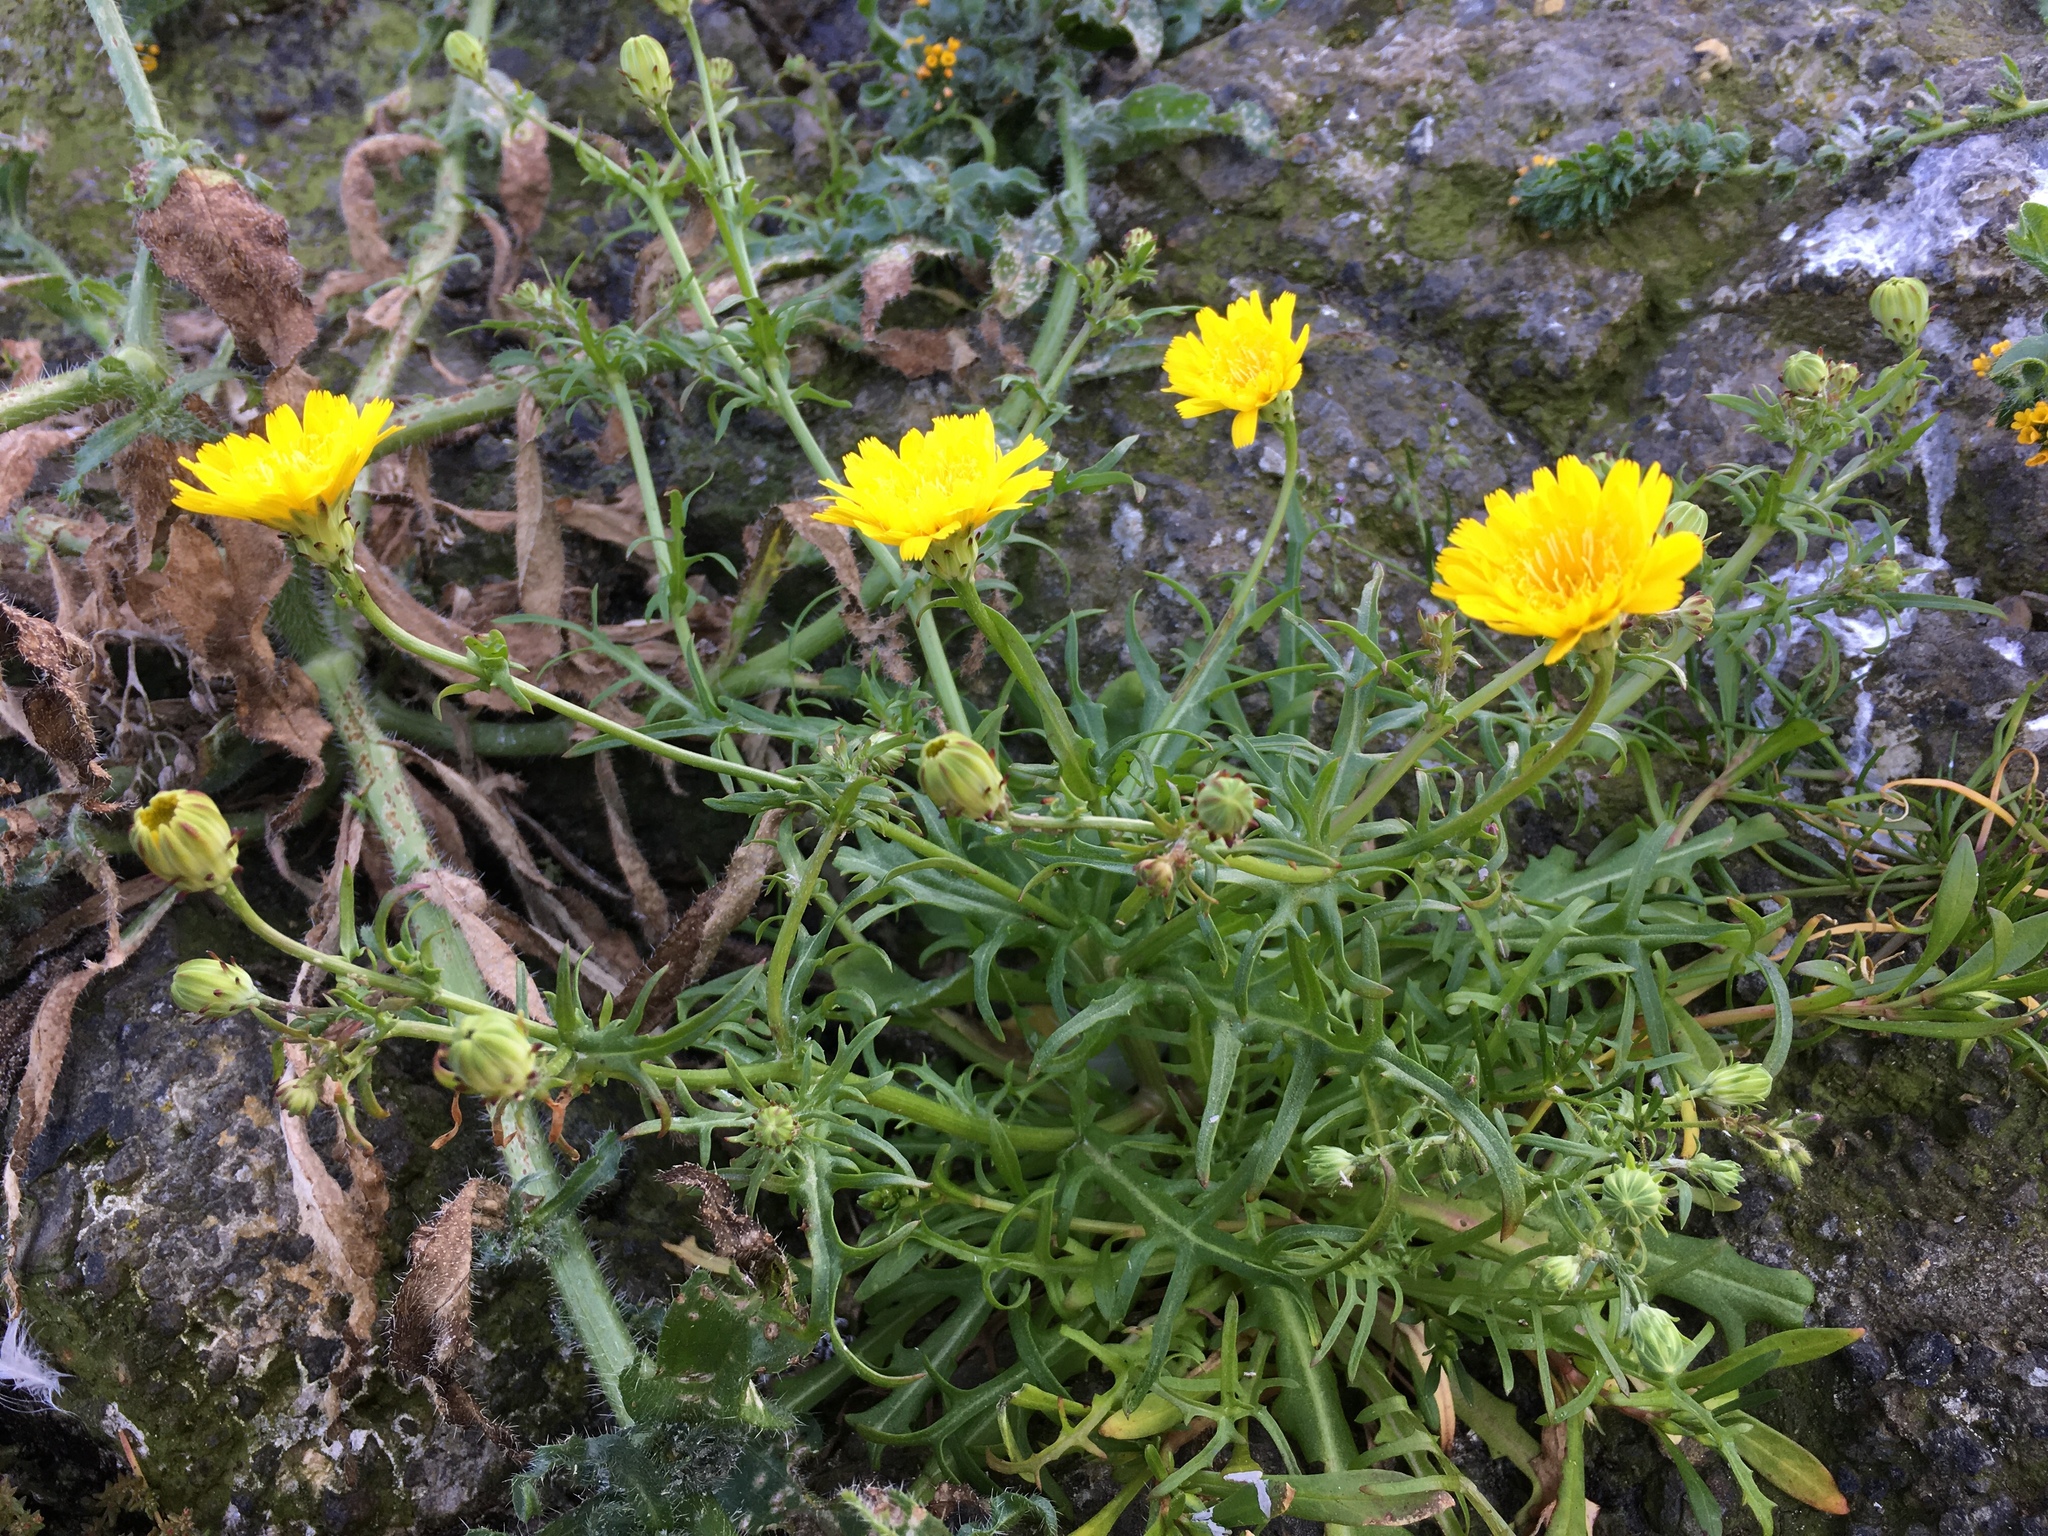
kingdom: Plantae
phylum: Tracheophyta
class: Magnoliopsida
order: Asterales
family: Asteraceae
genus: Malacothrix
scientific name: Malacothrix foliosa
